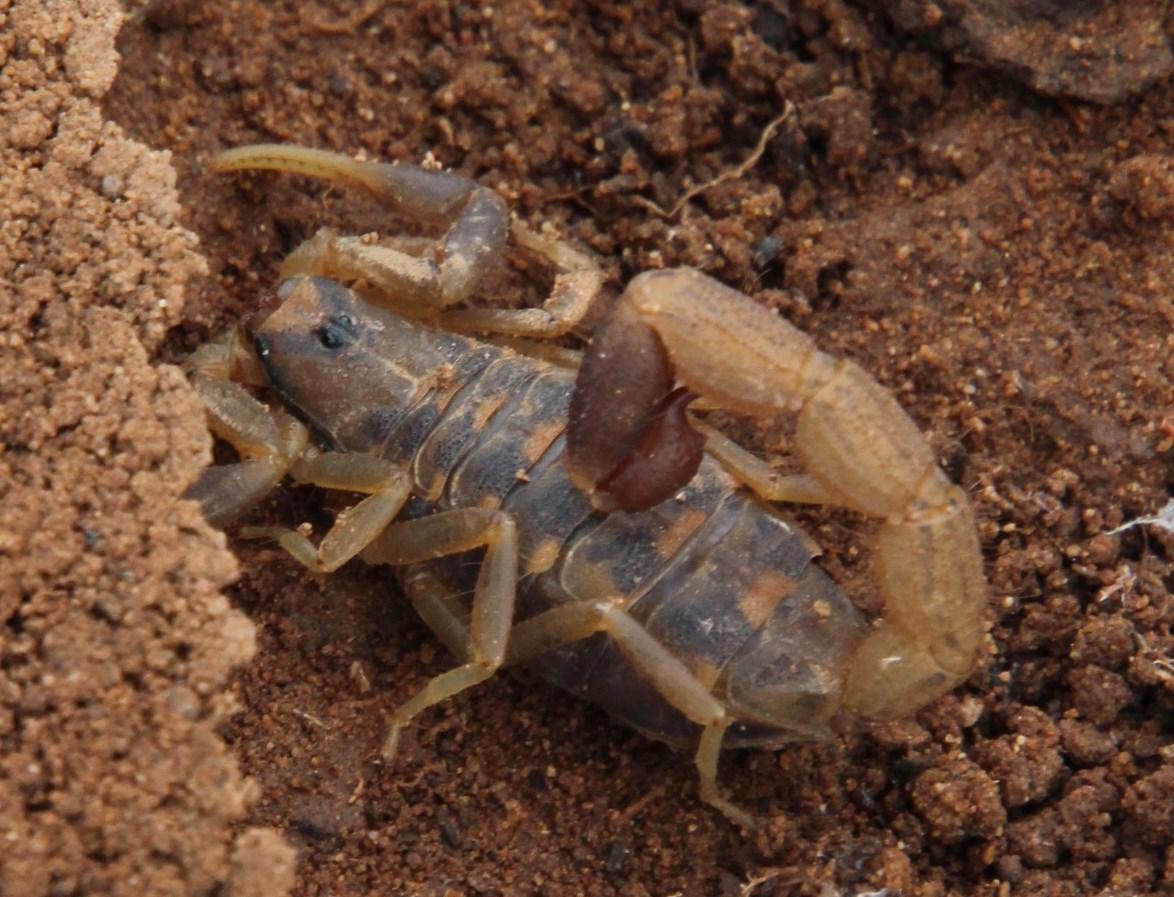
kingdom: Animalia
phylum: Arthropoda
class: Arachnida
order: Scorpiones
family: Buthidae
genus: Uroplectes
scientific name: Uroplectes triangulifer
